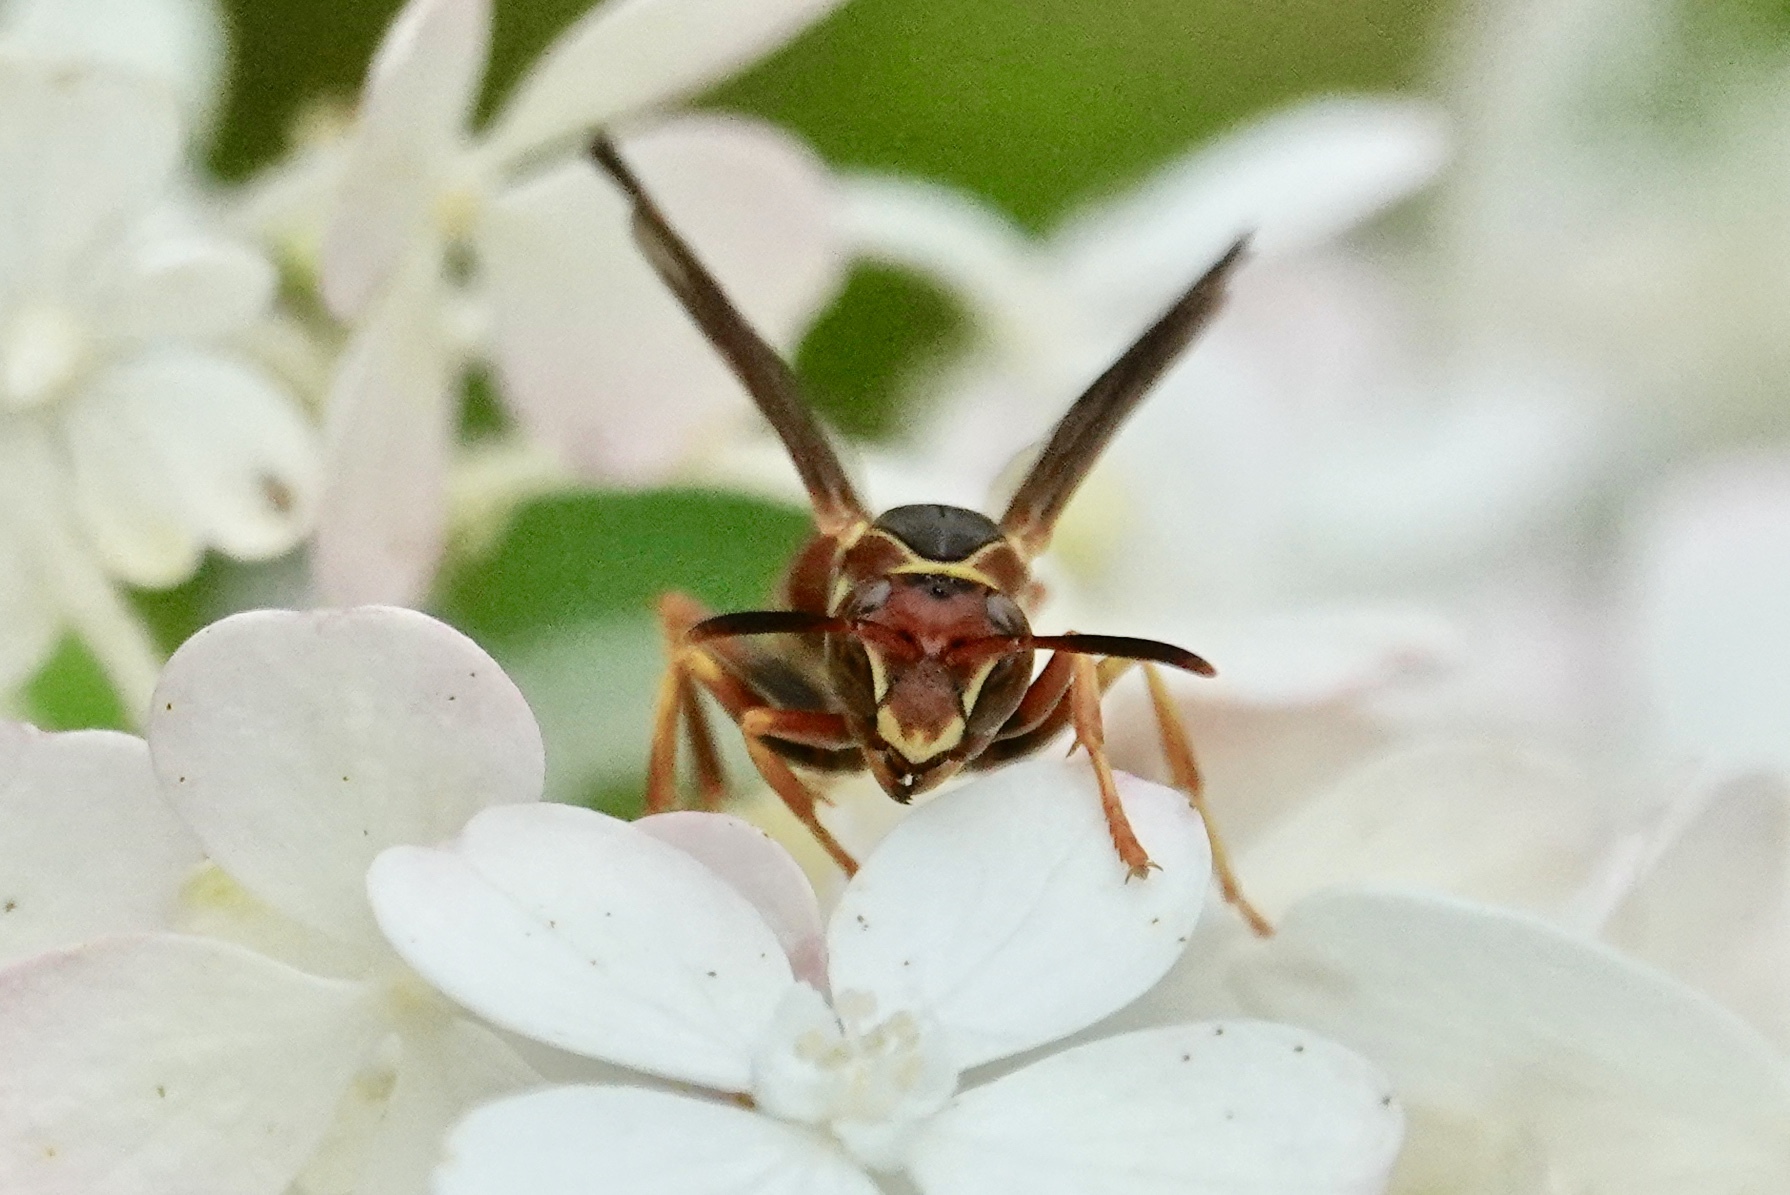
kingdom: Animalia
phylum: Arthropoda
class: Insecta
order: Hymenoptera
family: Eumenidae
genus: Polistes
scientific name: Polistes dorsalis
